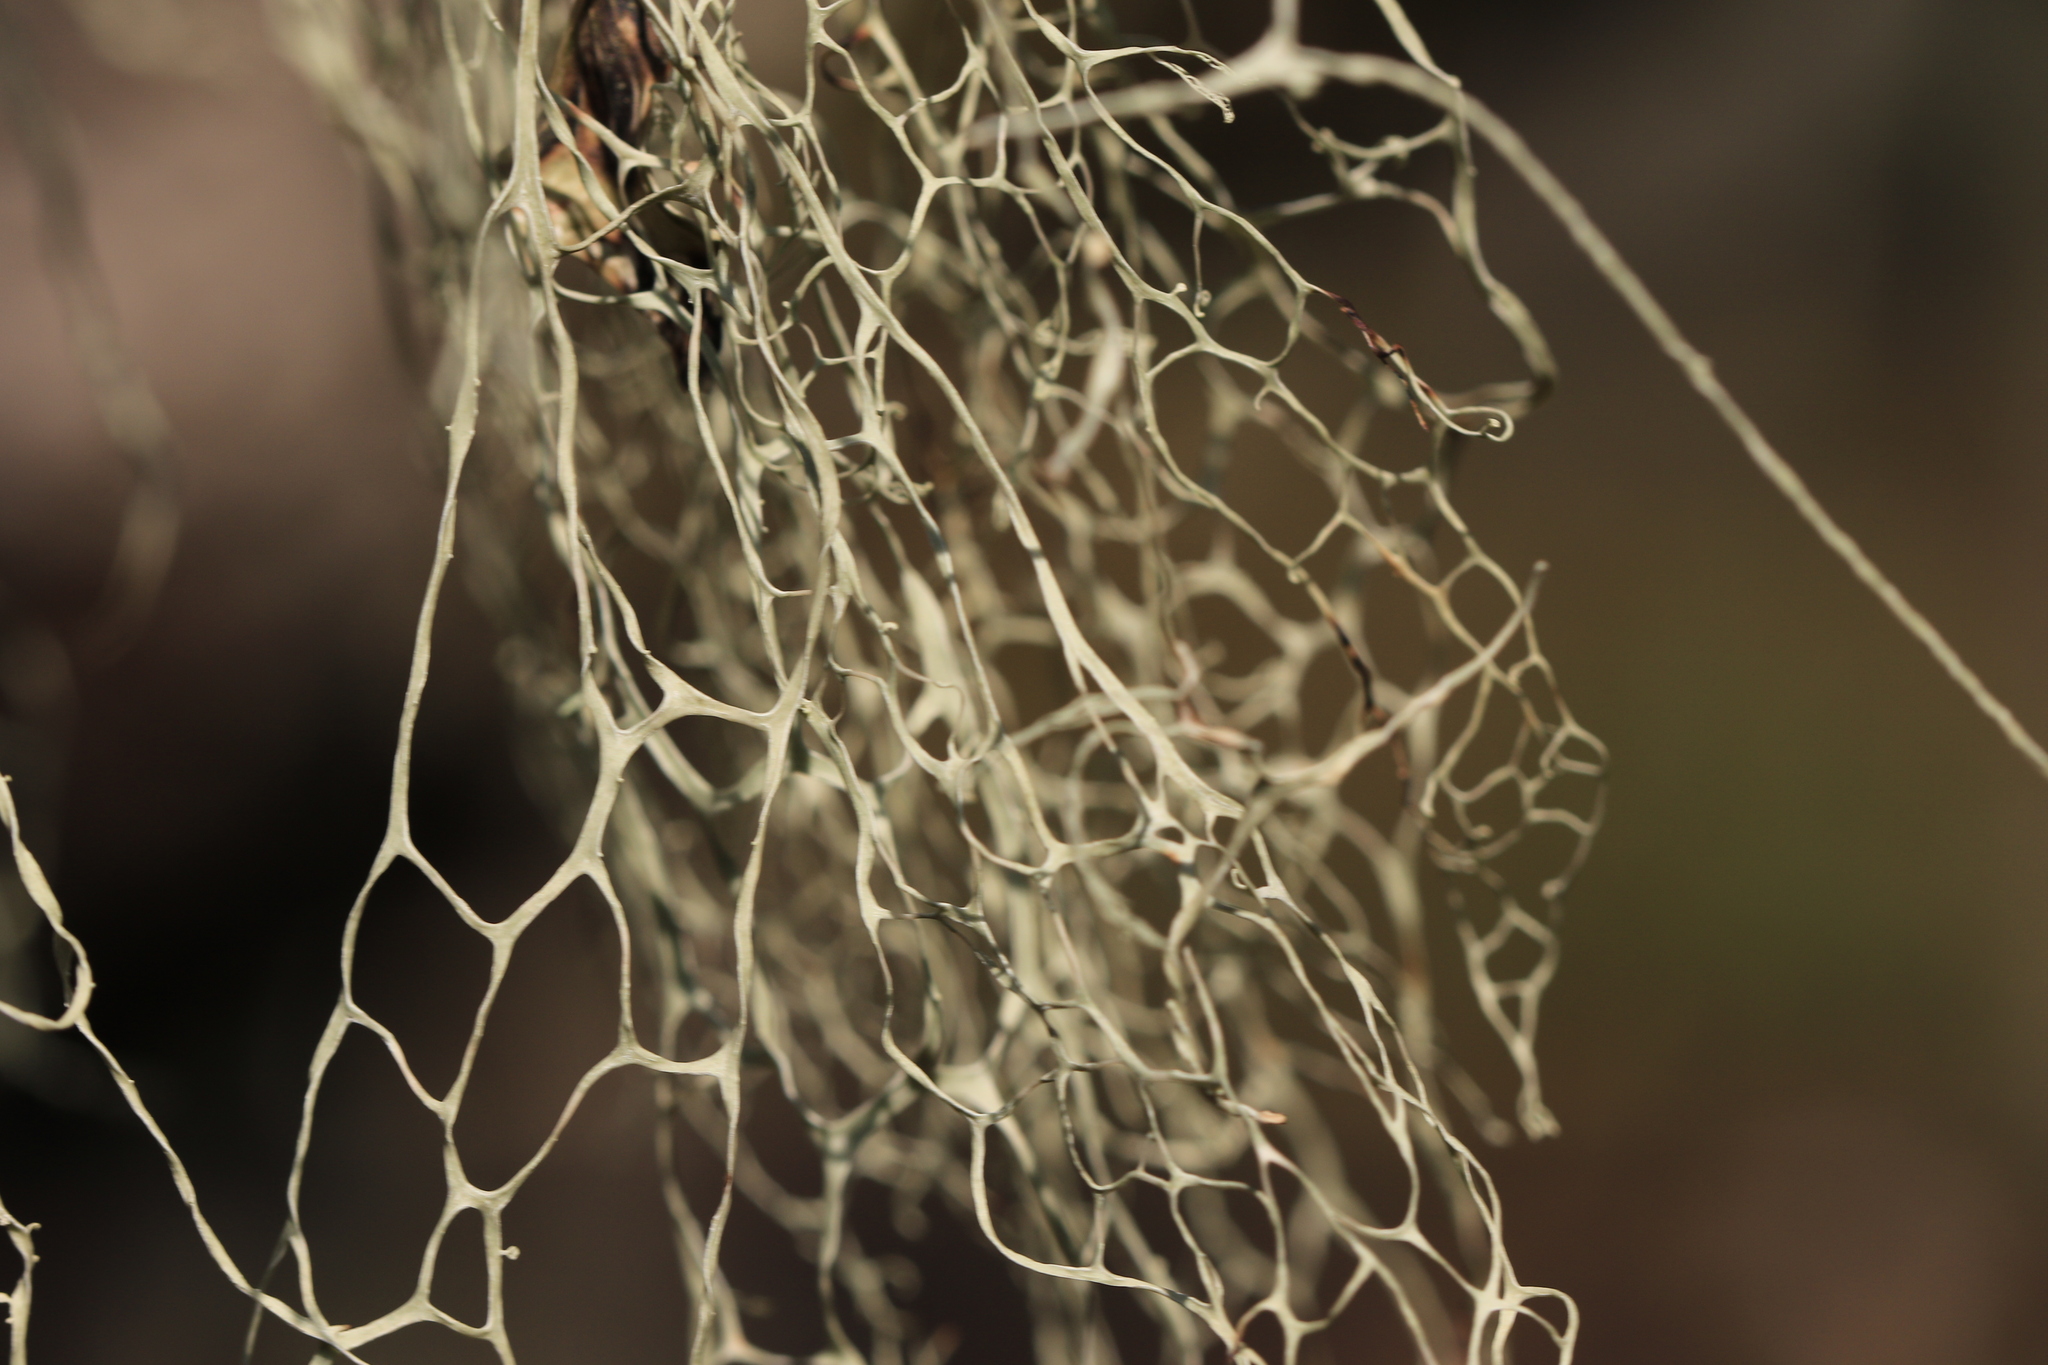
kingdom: Fungi
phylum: Ascomycota
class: Lecanoromycetes
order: Lecanorales
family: Ramalinaceae
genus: Ramalina
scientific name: Ramalina menziesii
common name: Lace lichen
